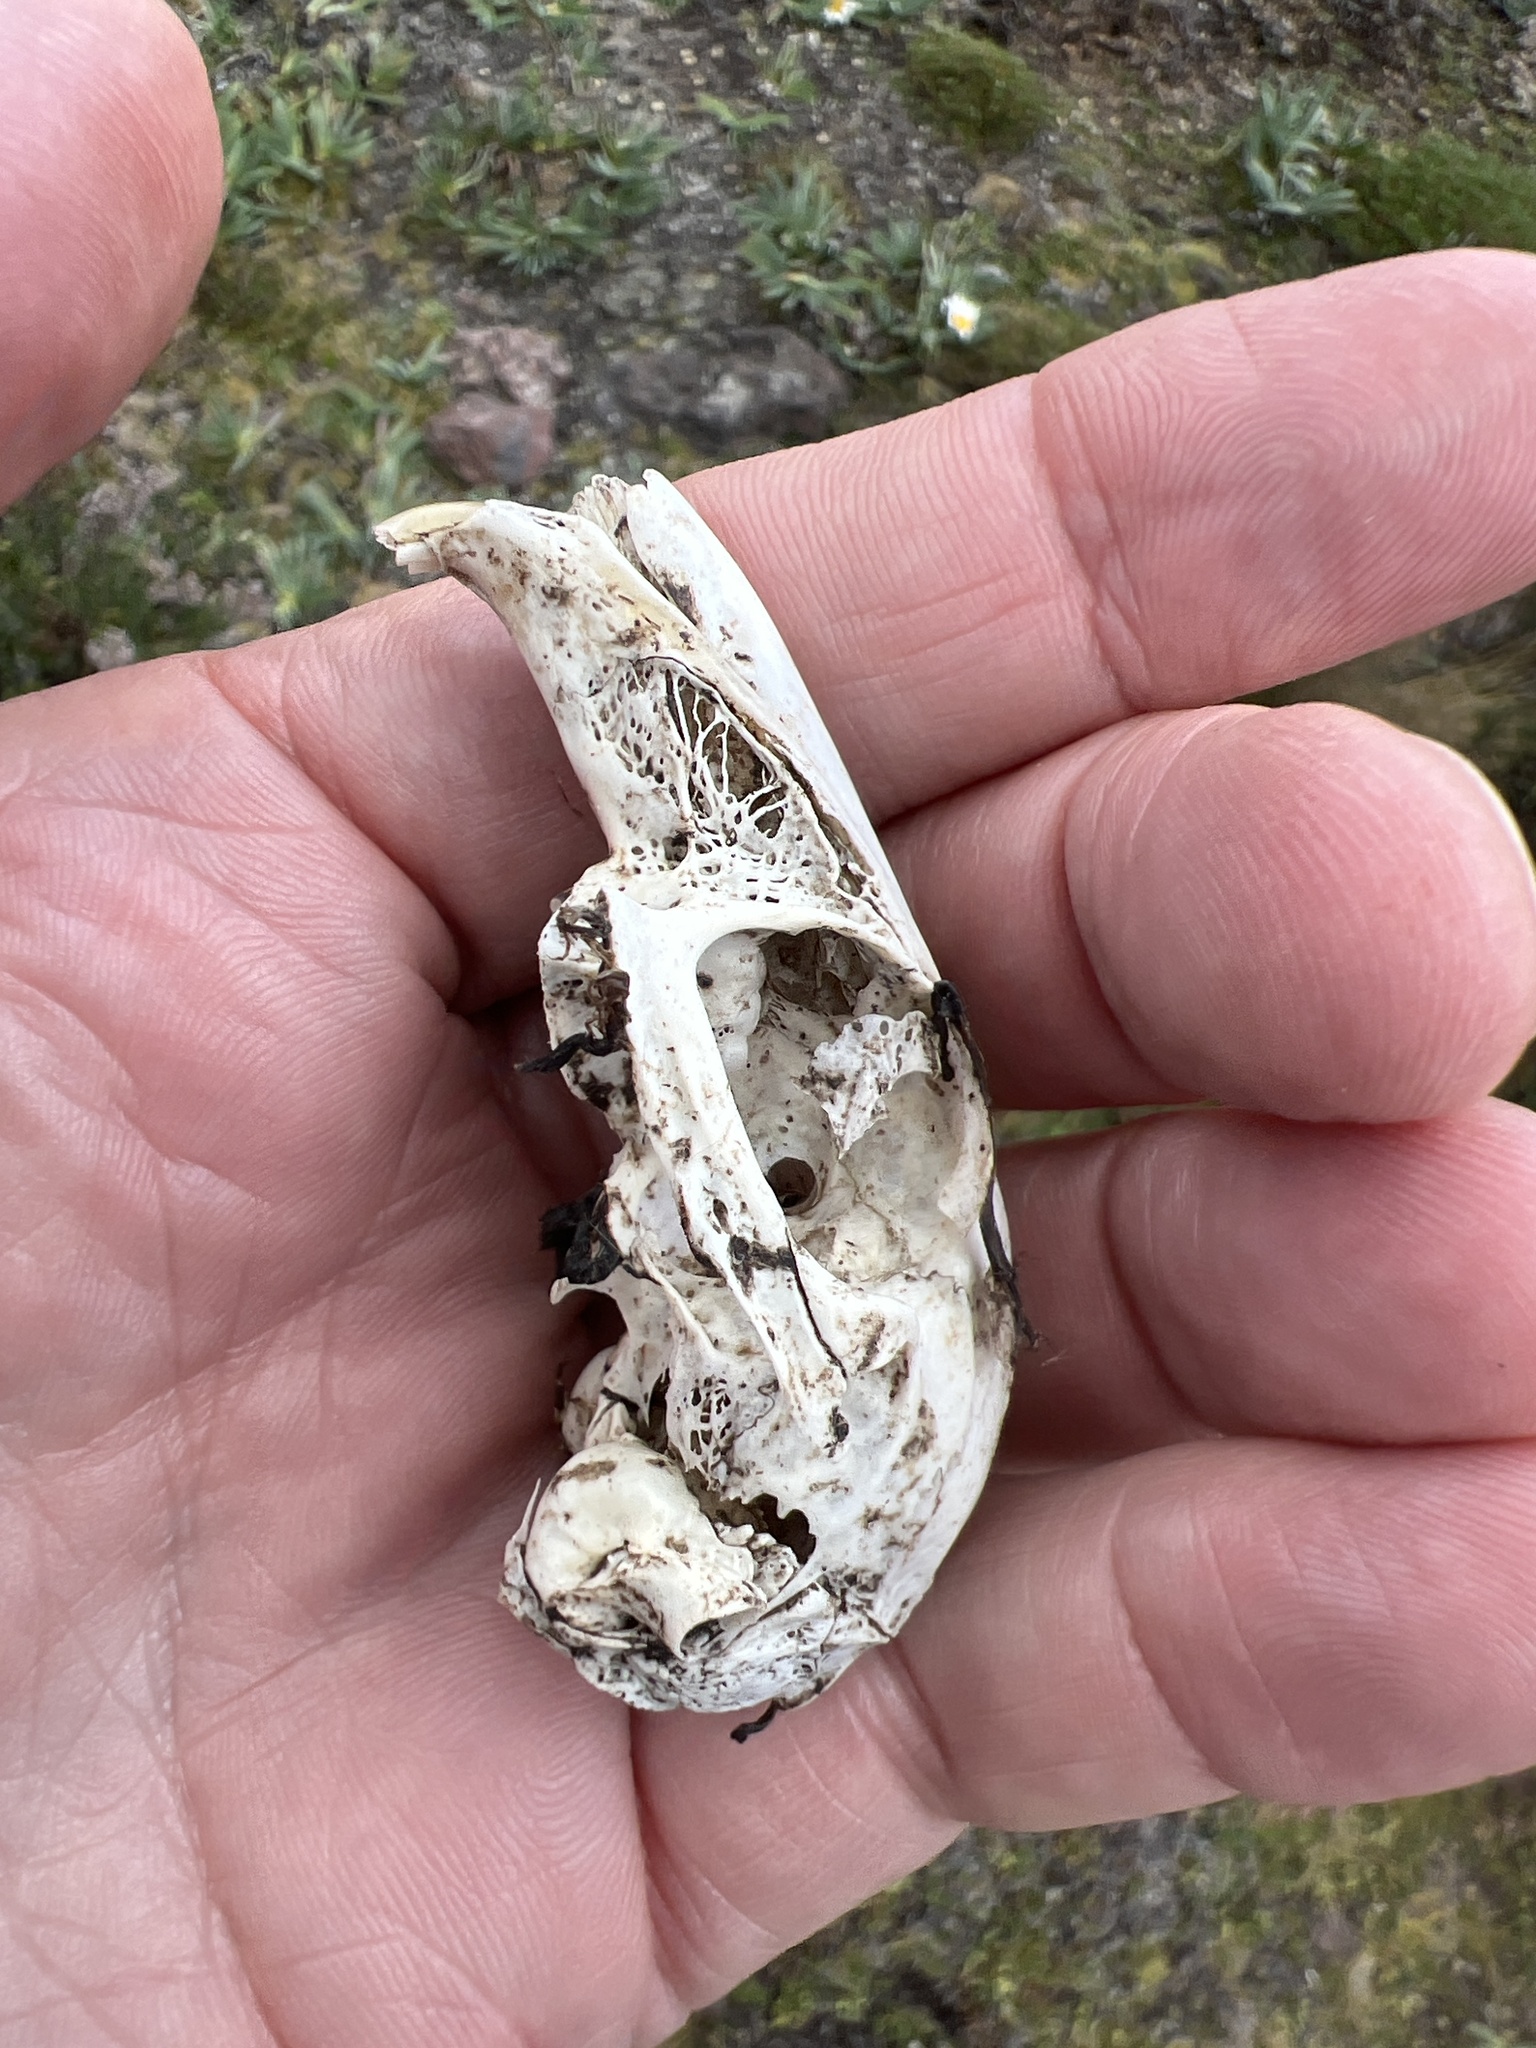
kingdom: Animalia
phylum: Chordata
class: Mammalia
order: Lagomorpha
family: Leporidae
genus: Sylvilagus
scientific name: Sylvilagus andinus
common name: Andean cottontail
